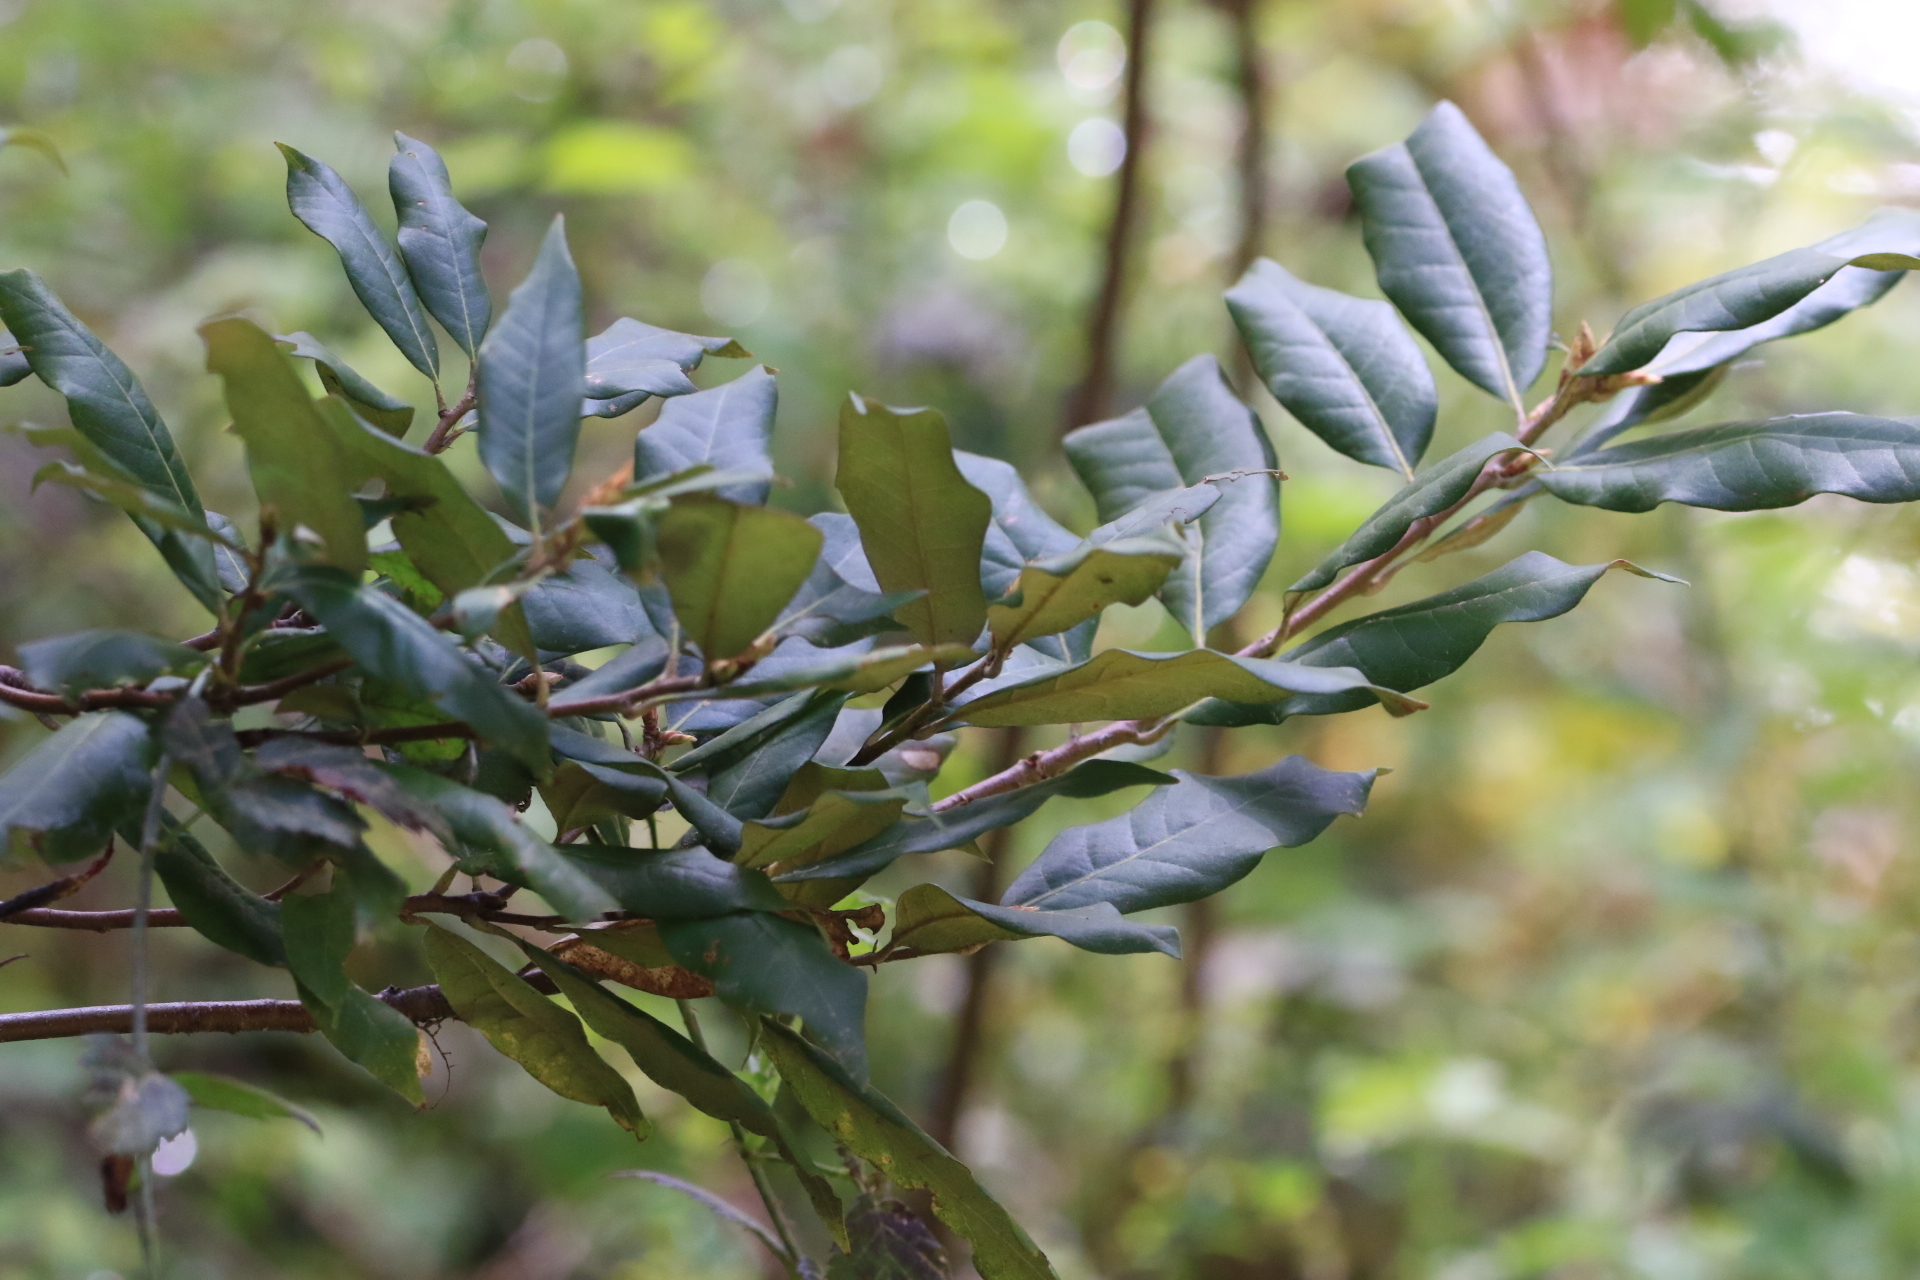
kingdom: Plantae
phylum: Tracheophyta
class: Magnoliopsida
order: Fagales
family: Fagaceae
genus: Chrysolepis
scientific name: Chrysolepis chrysophylla
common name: Giant chinquapin
